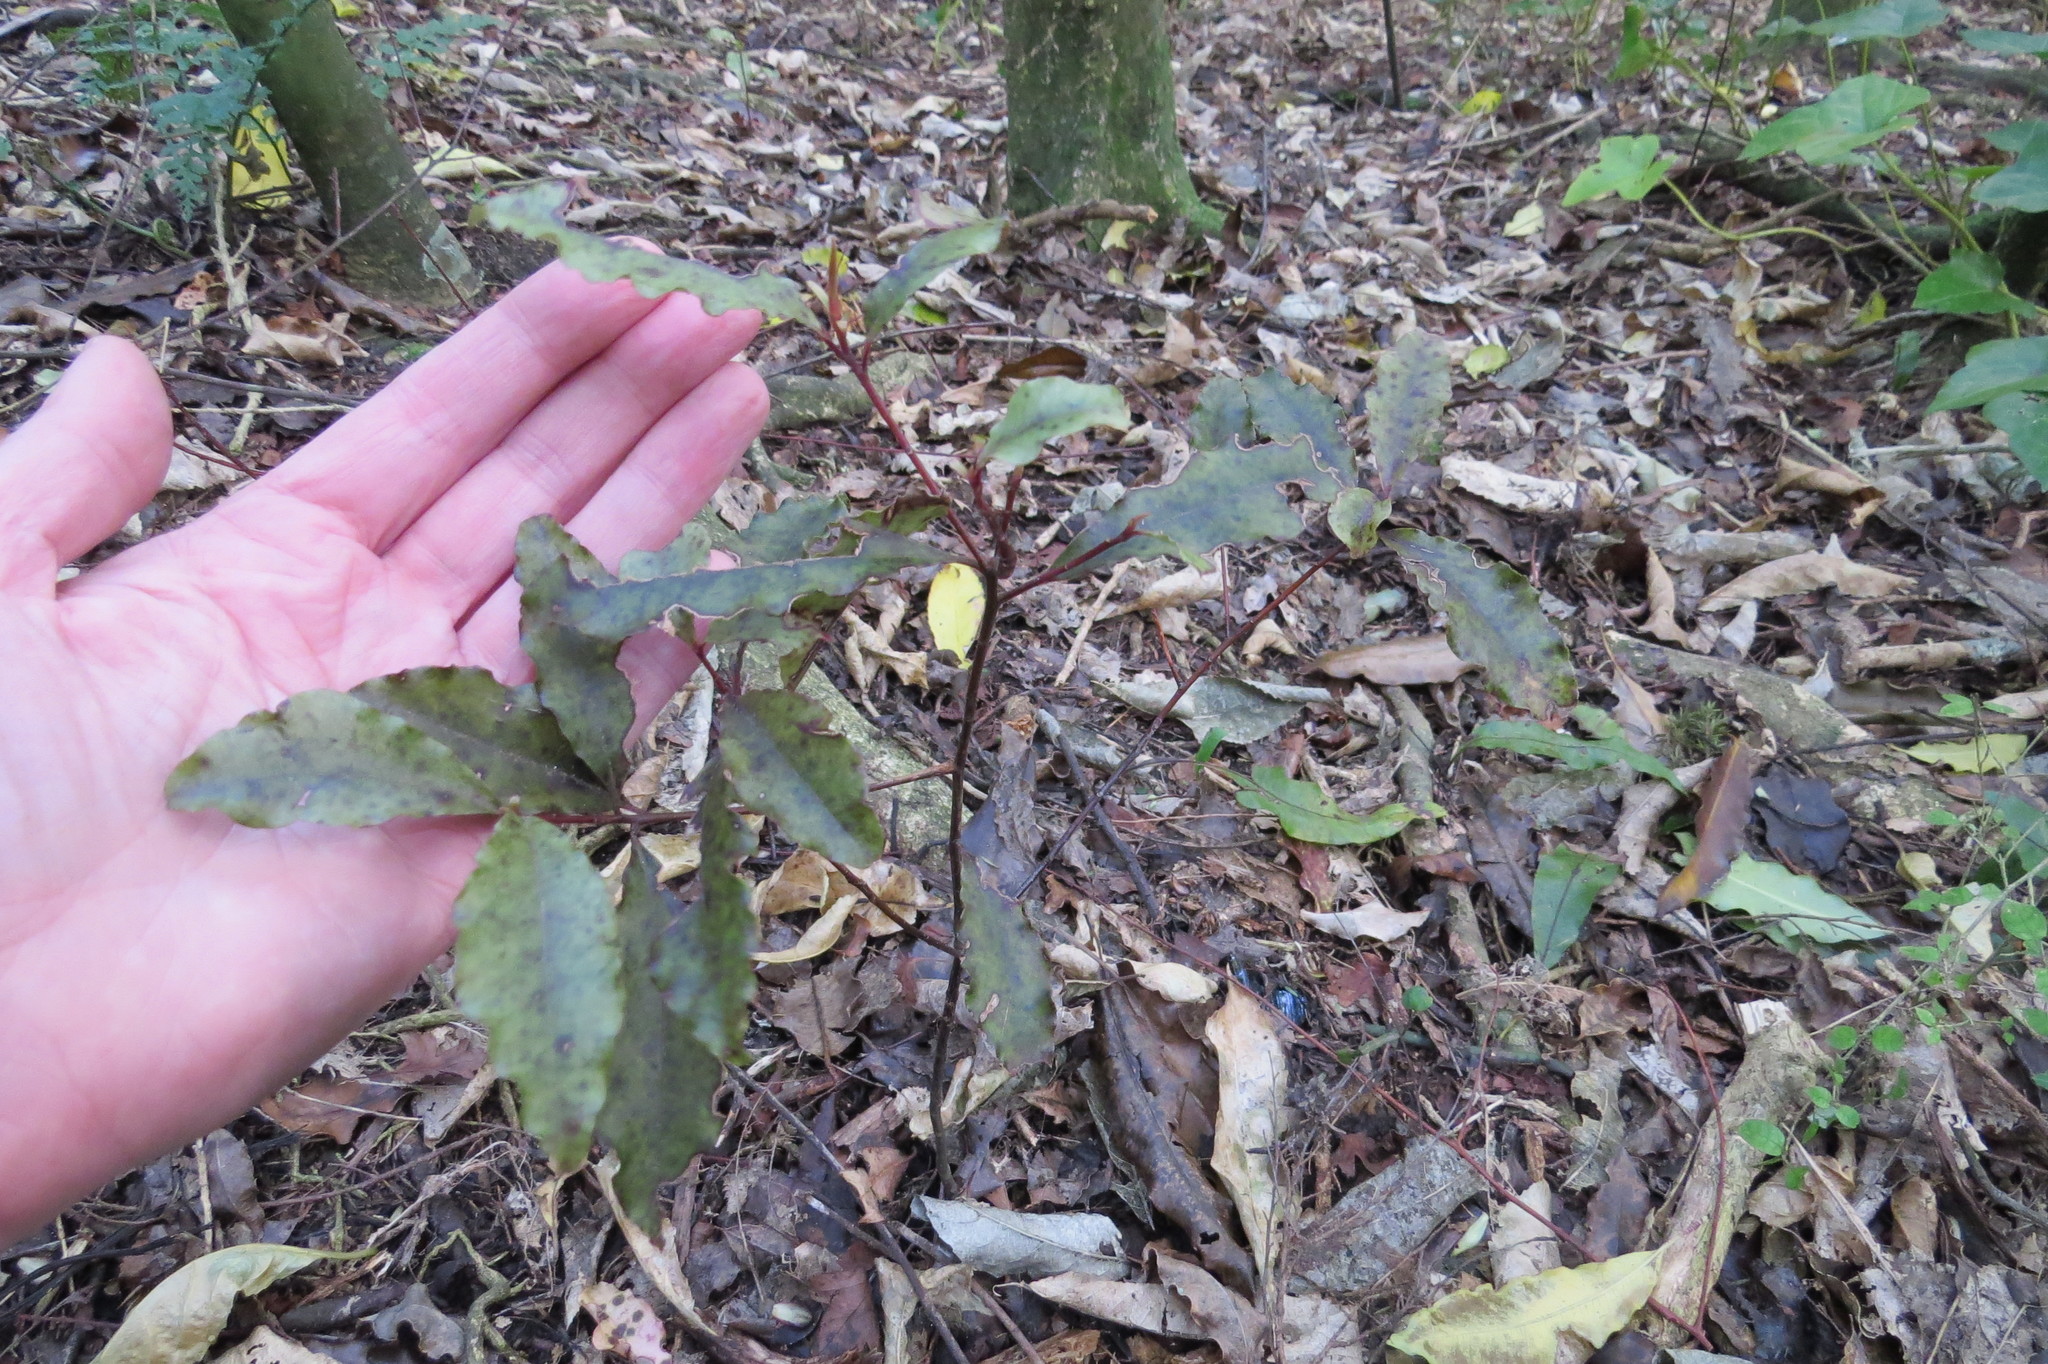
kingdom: Plantae
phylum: Tracheophyta
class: Magnoliopsida
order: Ericales
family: Primulaceae
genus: Myrsine
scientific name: Myrsine australis
